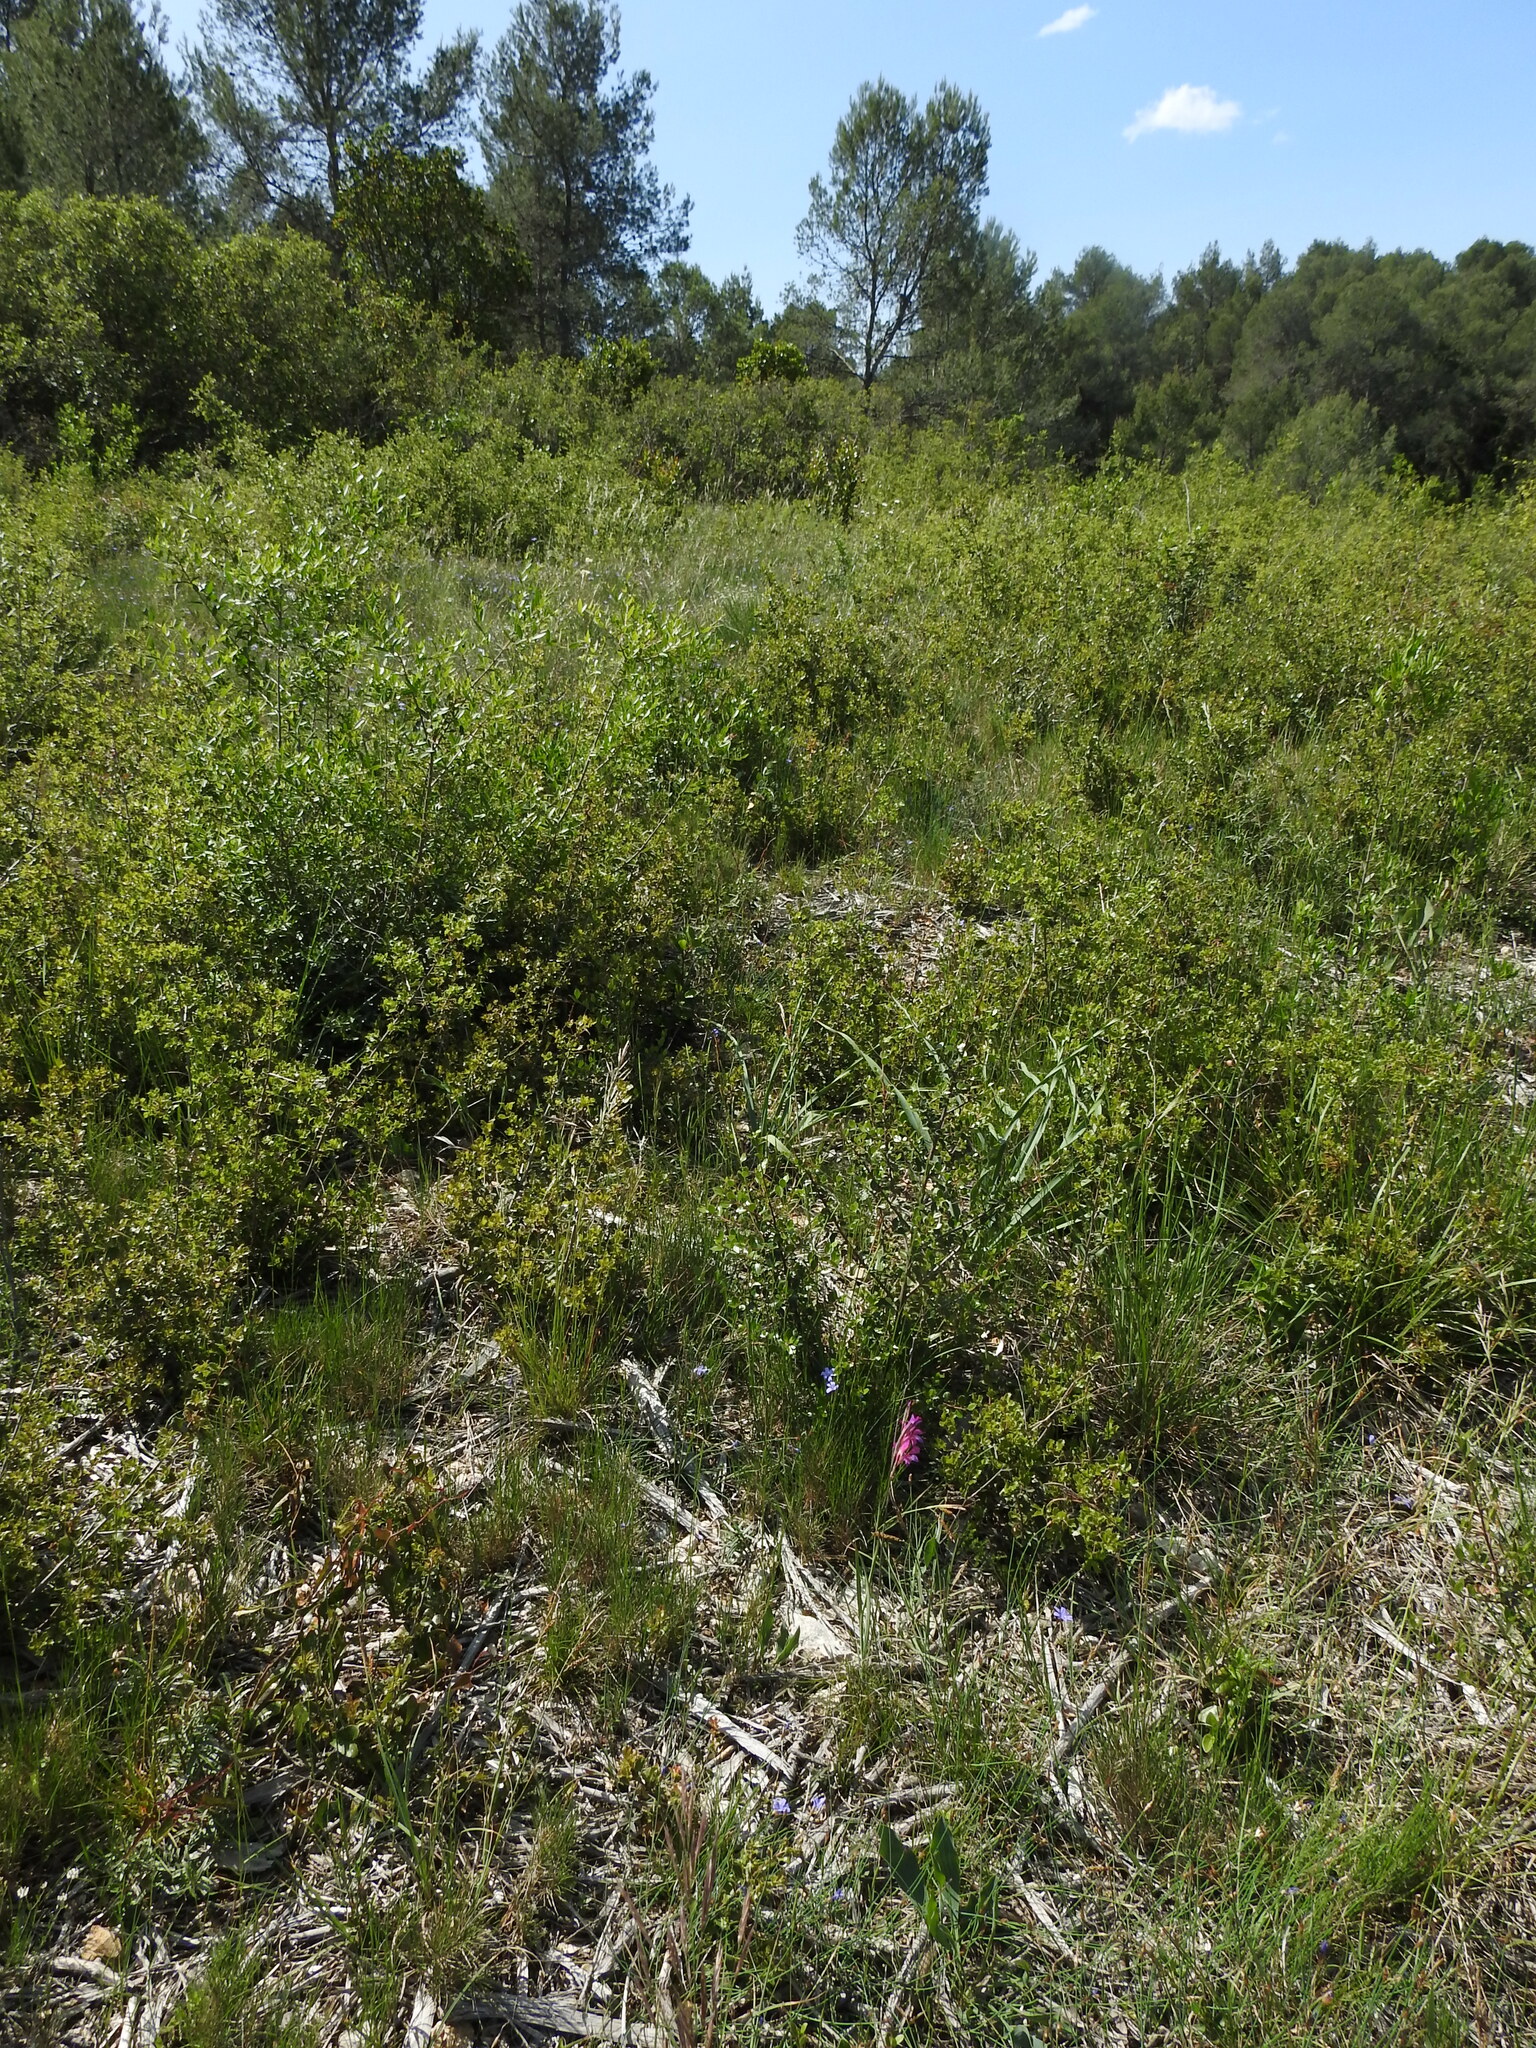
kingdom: Plantae
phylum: Tracheophyta
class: Liliopsida
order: Asparagales
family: Iridaceae
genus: Gladiolus
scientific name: Gladiolus dubius
